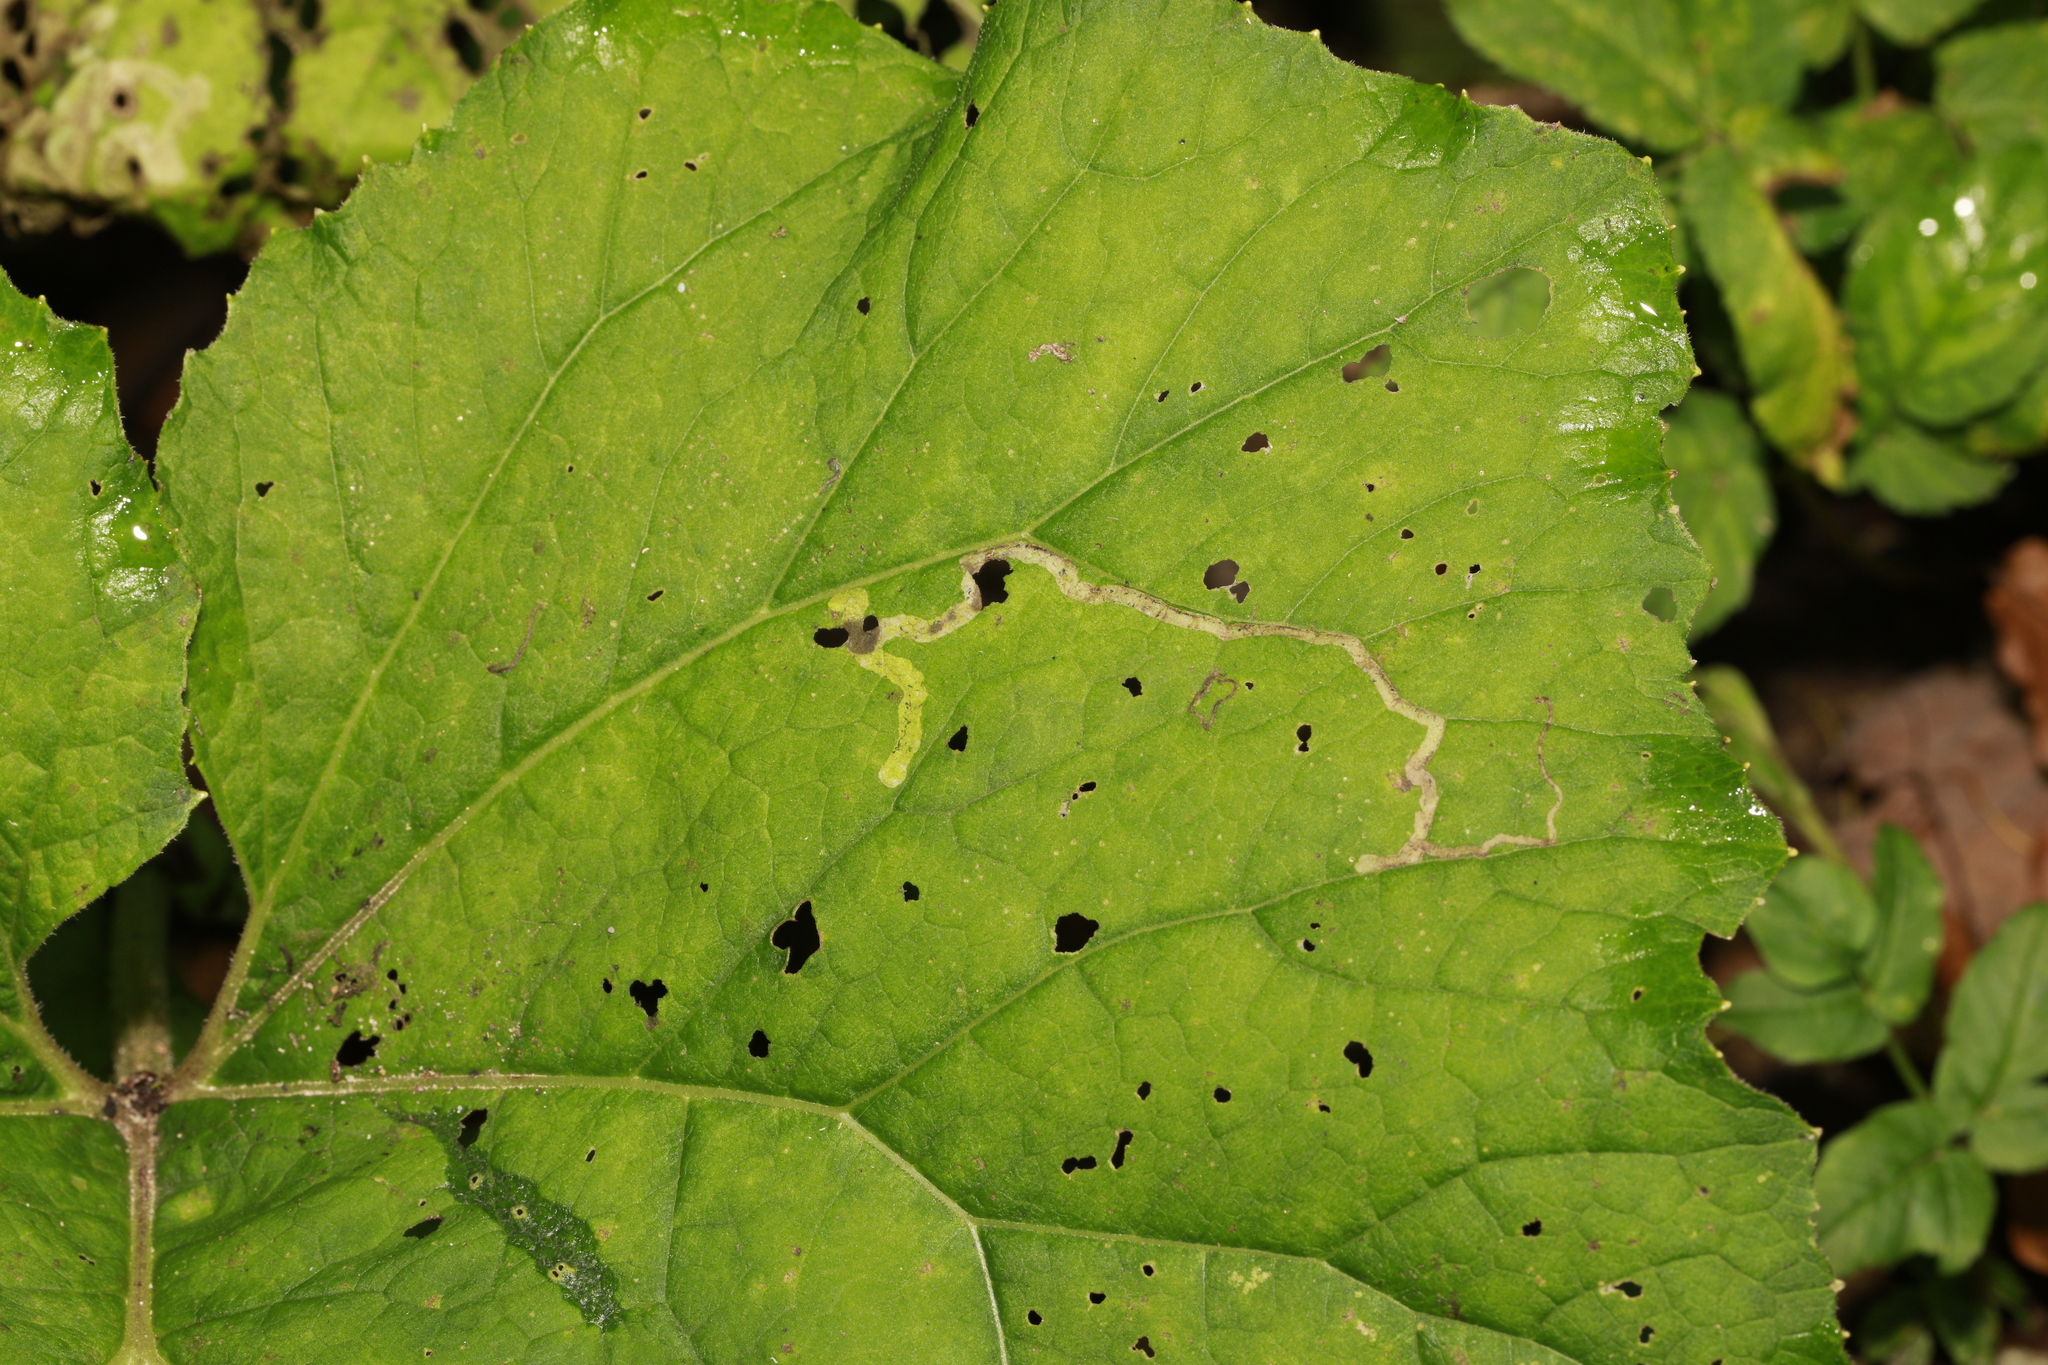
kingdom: Animalia
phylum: Arthropoda
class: Insecta
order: Diptera
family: Agromyzidae
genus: Phytomyza
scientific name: Phytomyza tussilaginis
